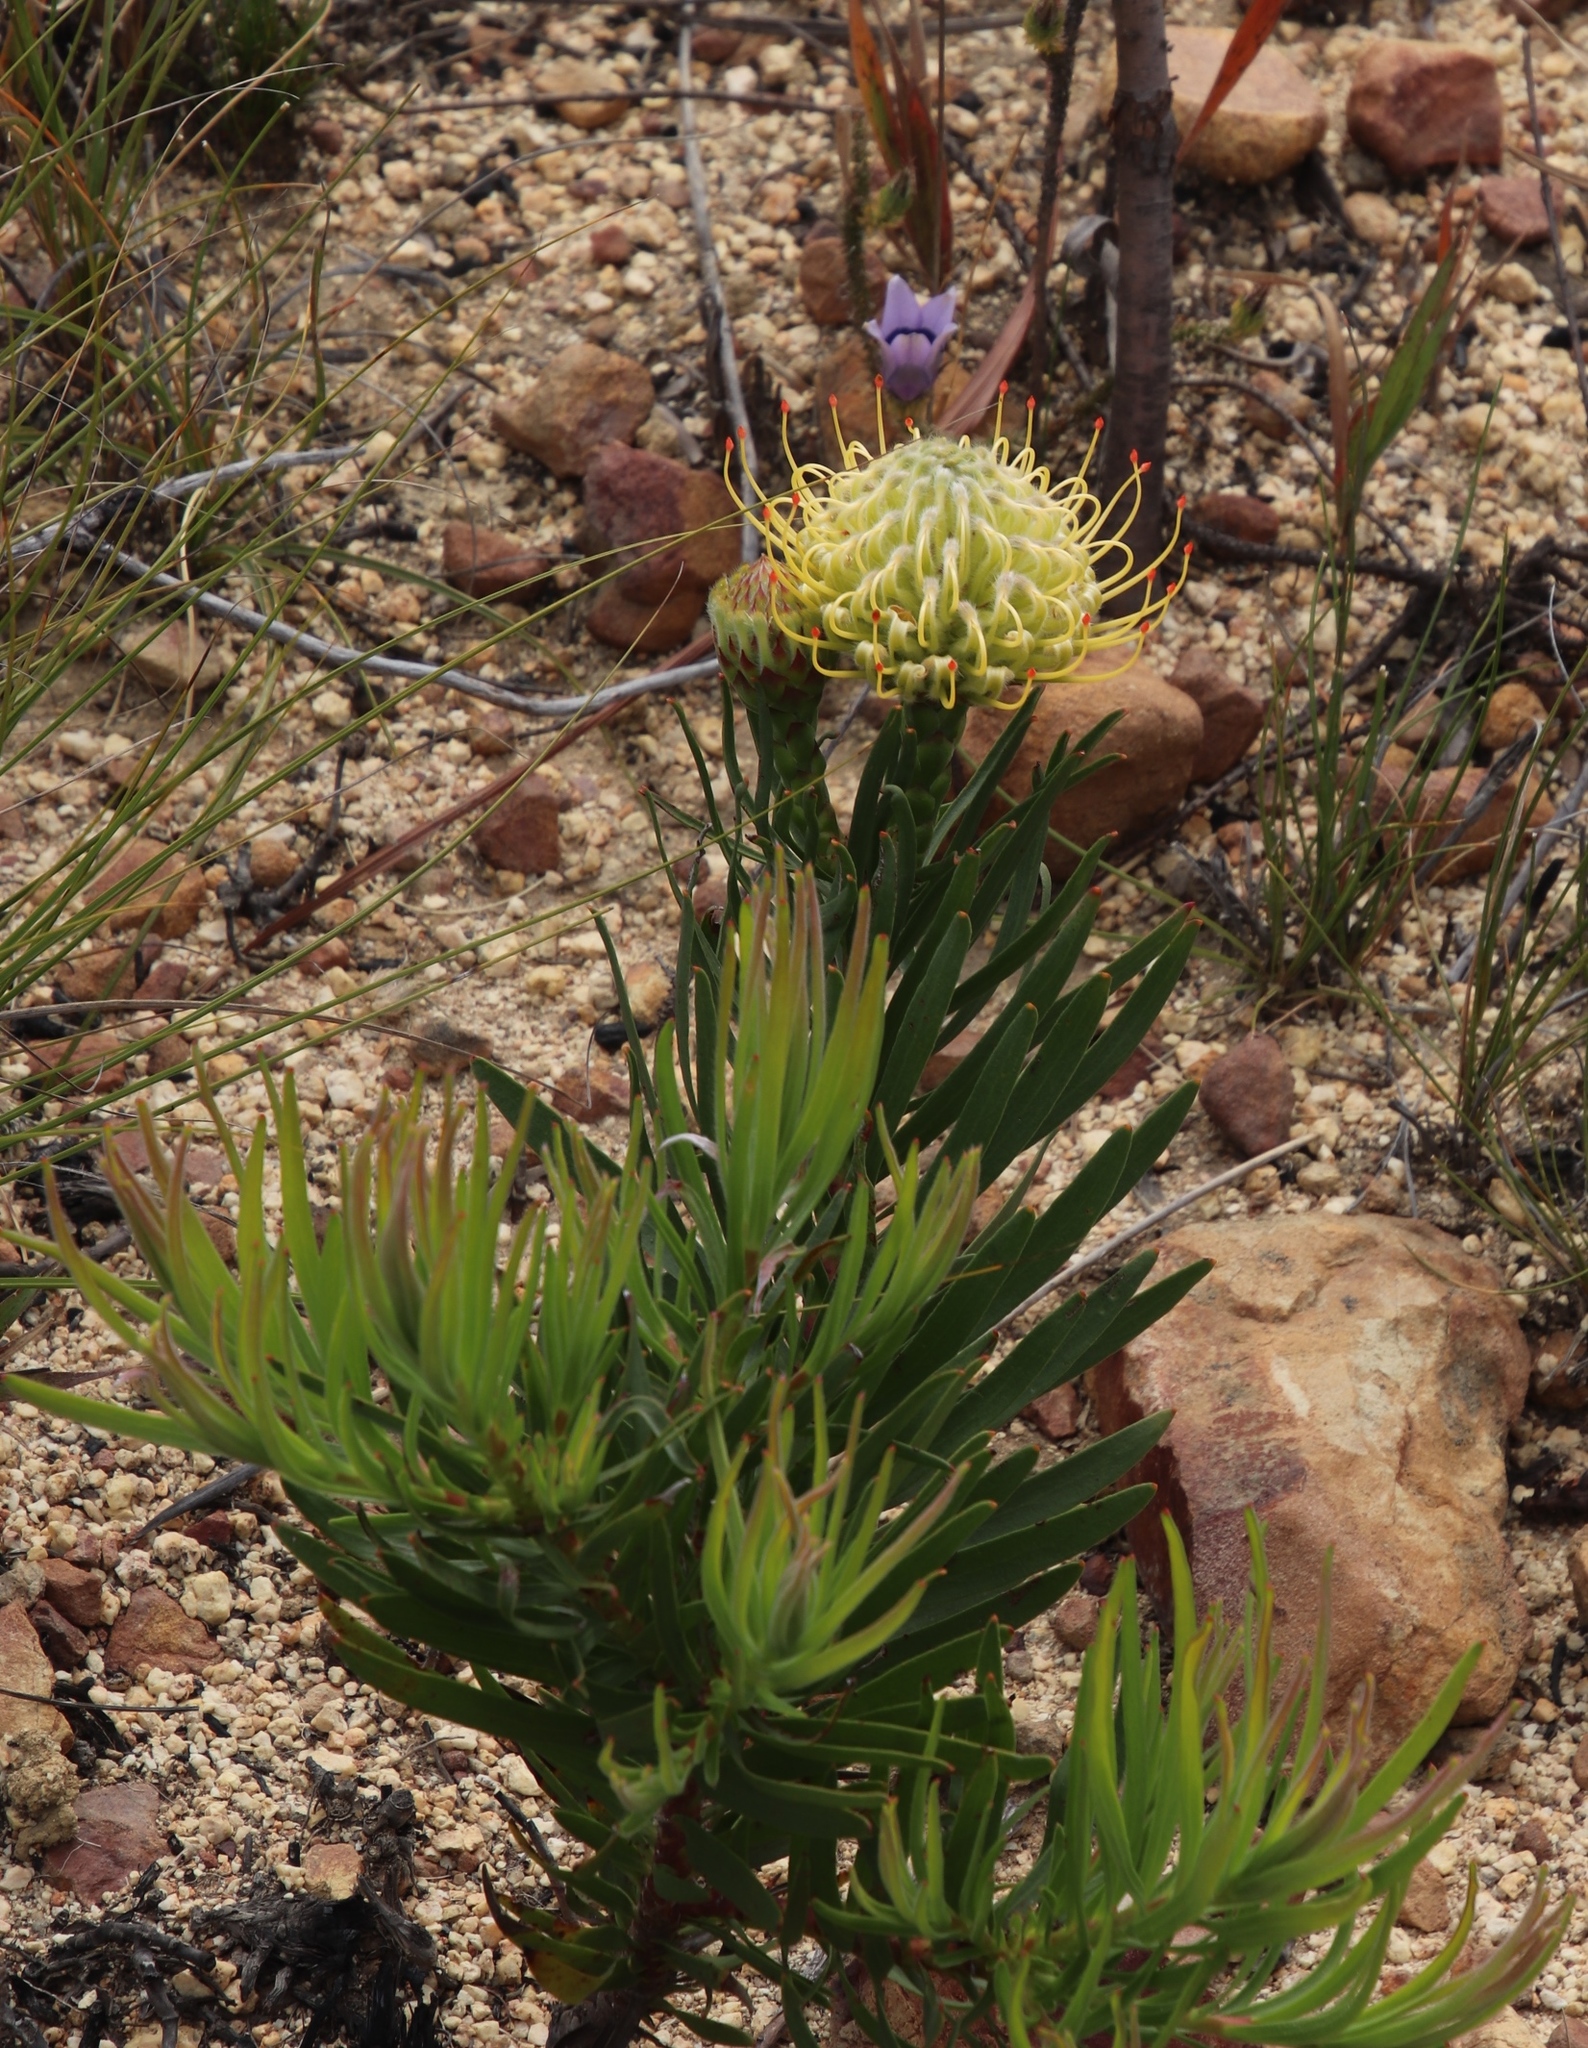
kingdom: Plantae
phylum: Tracheophyta
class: Magnoliopsida
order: Proteales
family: Proteaceae
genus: Leucospermum
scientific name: Leucospermum lineare
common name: Needle-leaf pincushion
